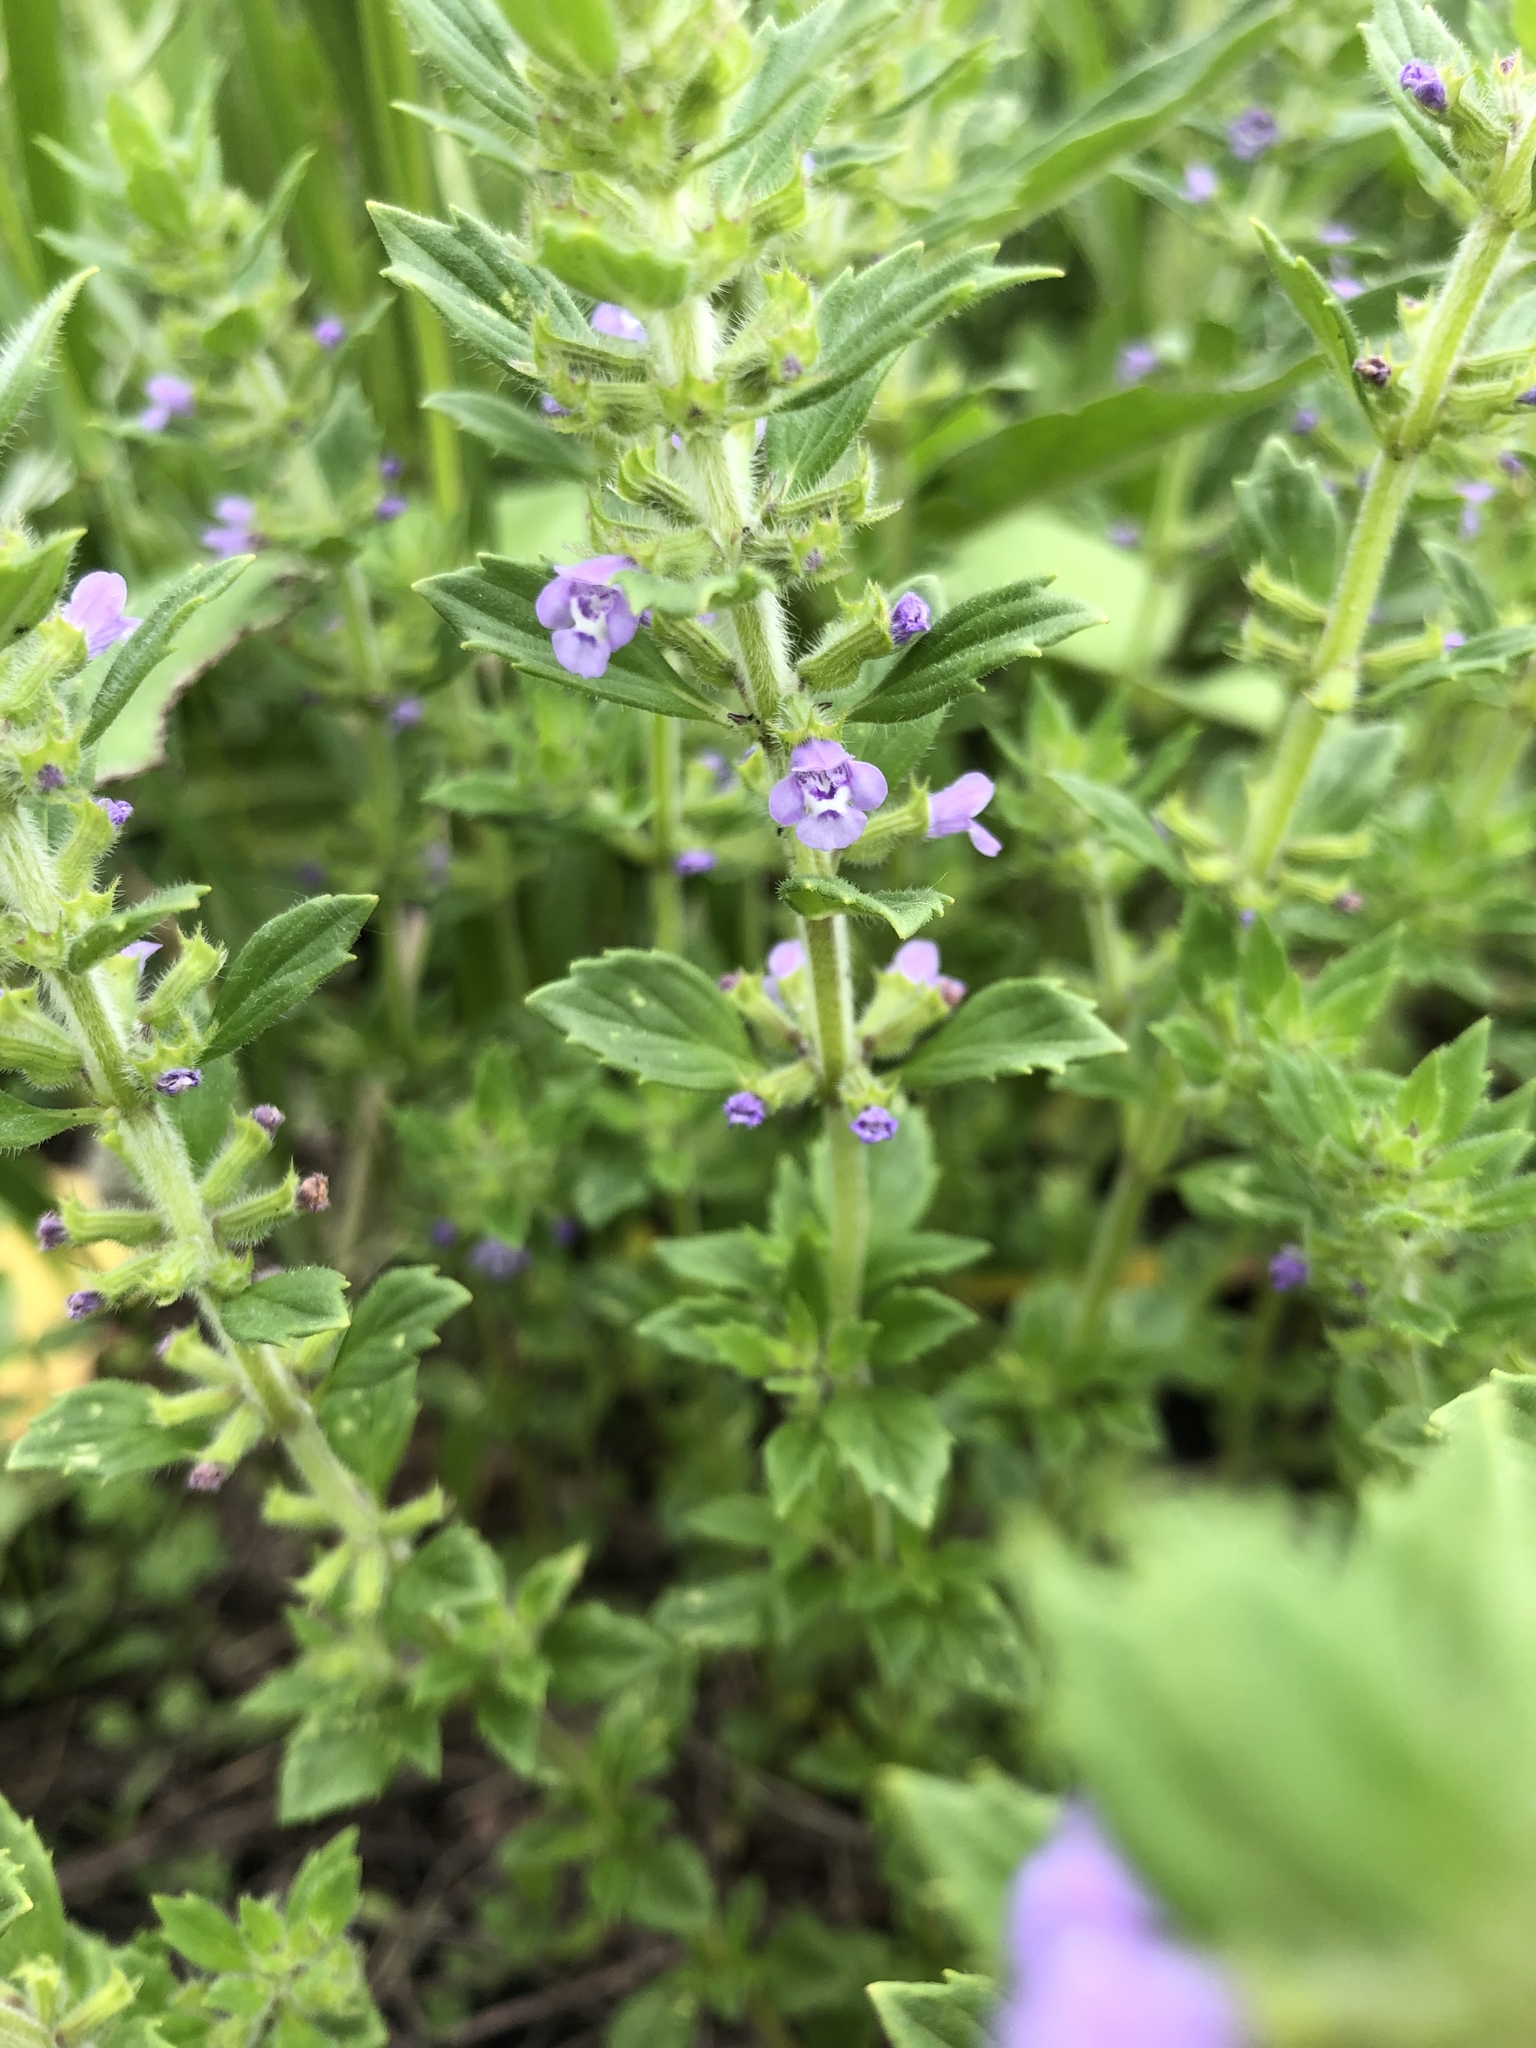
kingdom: Plantae
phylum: Tracheophyta
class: Magnoliopsida
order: Lamiales
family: Lamiaceae
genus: Clinopodium
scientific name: Clinopodium acinos
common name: Basil thyme
